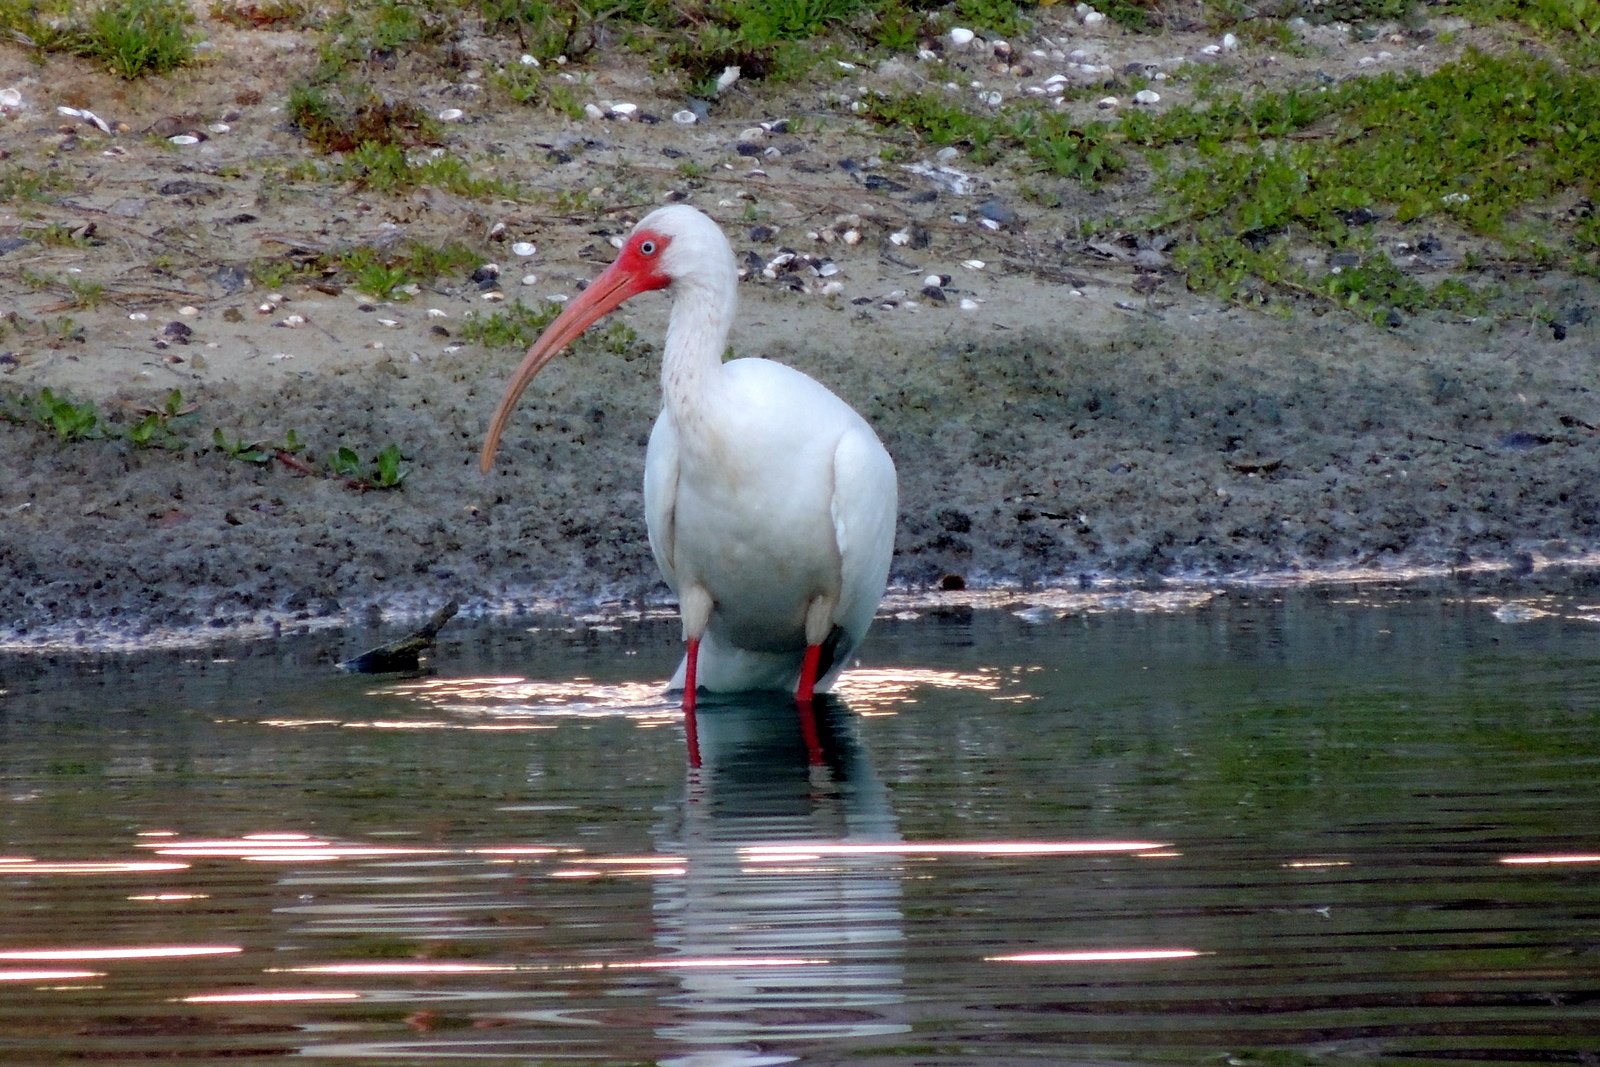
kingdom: Animalia
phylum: Chordata
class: Aves
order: Pelecaniformes
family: Threskiornithidae
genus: Eudocimus
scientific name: Eudocimus albus
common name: White ibis
